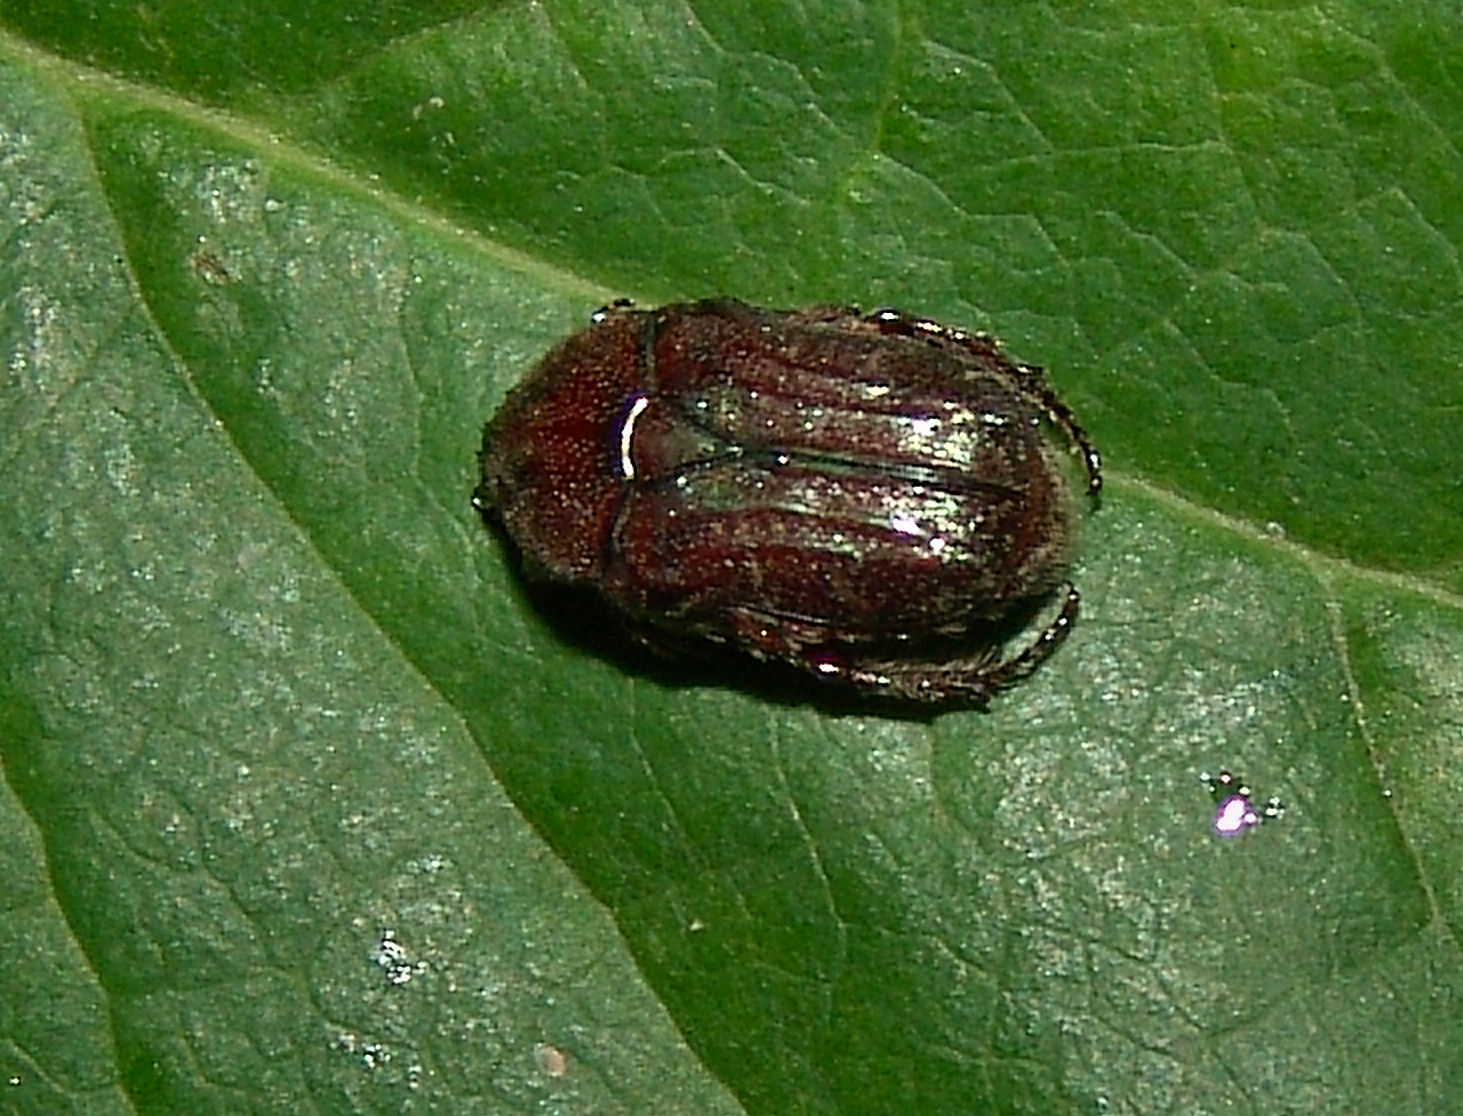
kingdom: Animalia
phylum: Arthropoda
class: Insecta
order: Coleoptera
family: Scarabaeidae
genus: Euphoria
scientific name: Euphoria sepulcralis
